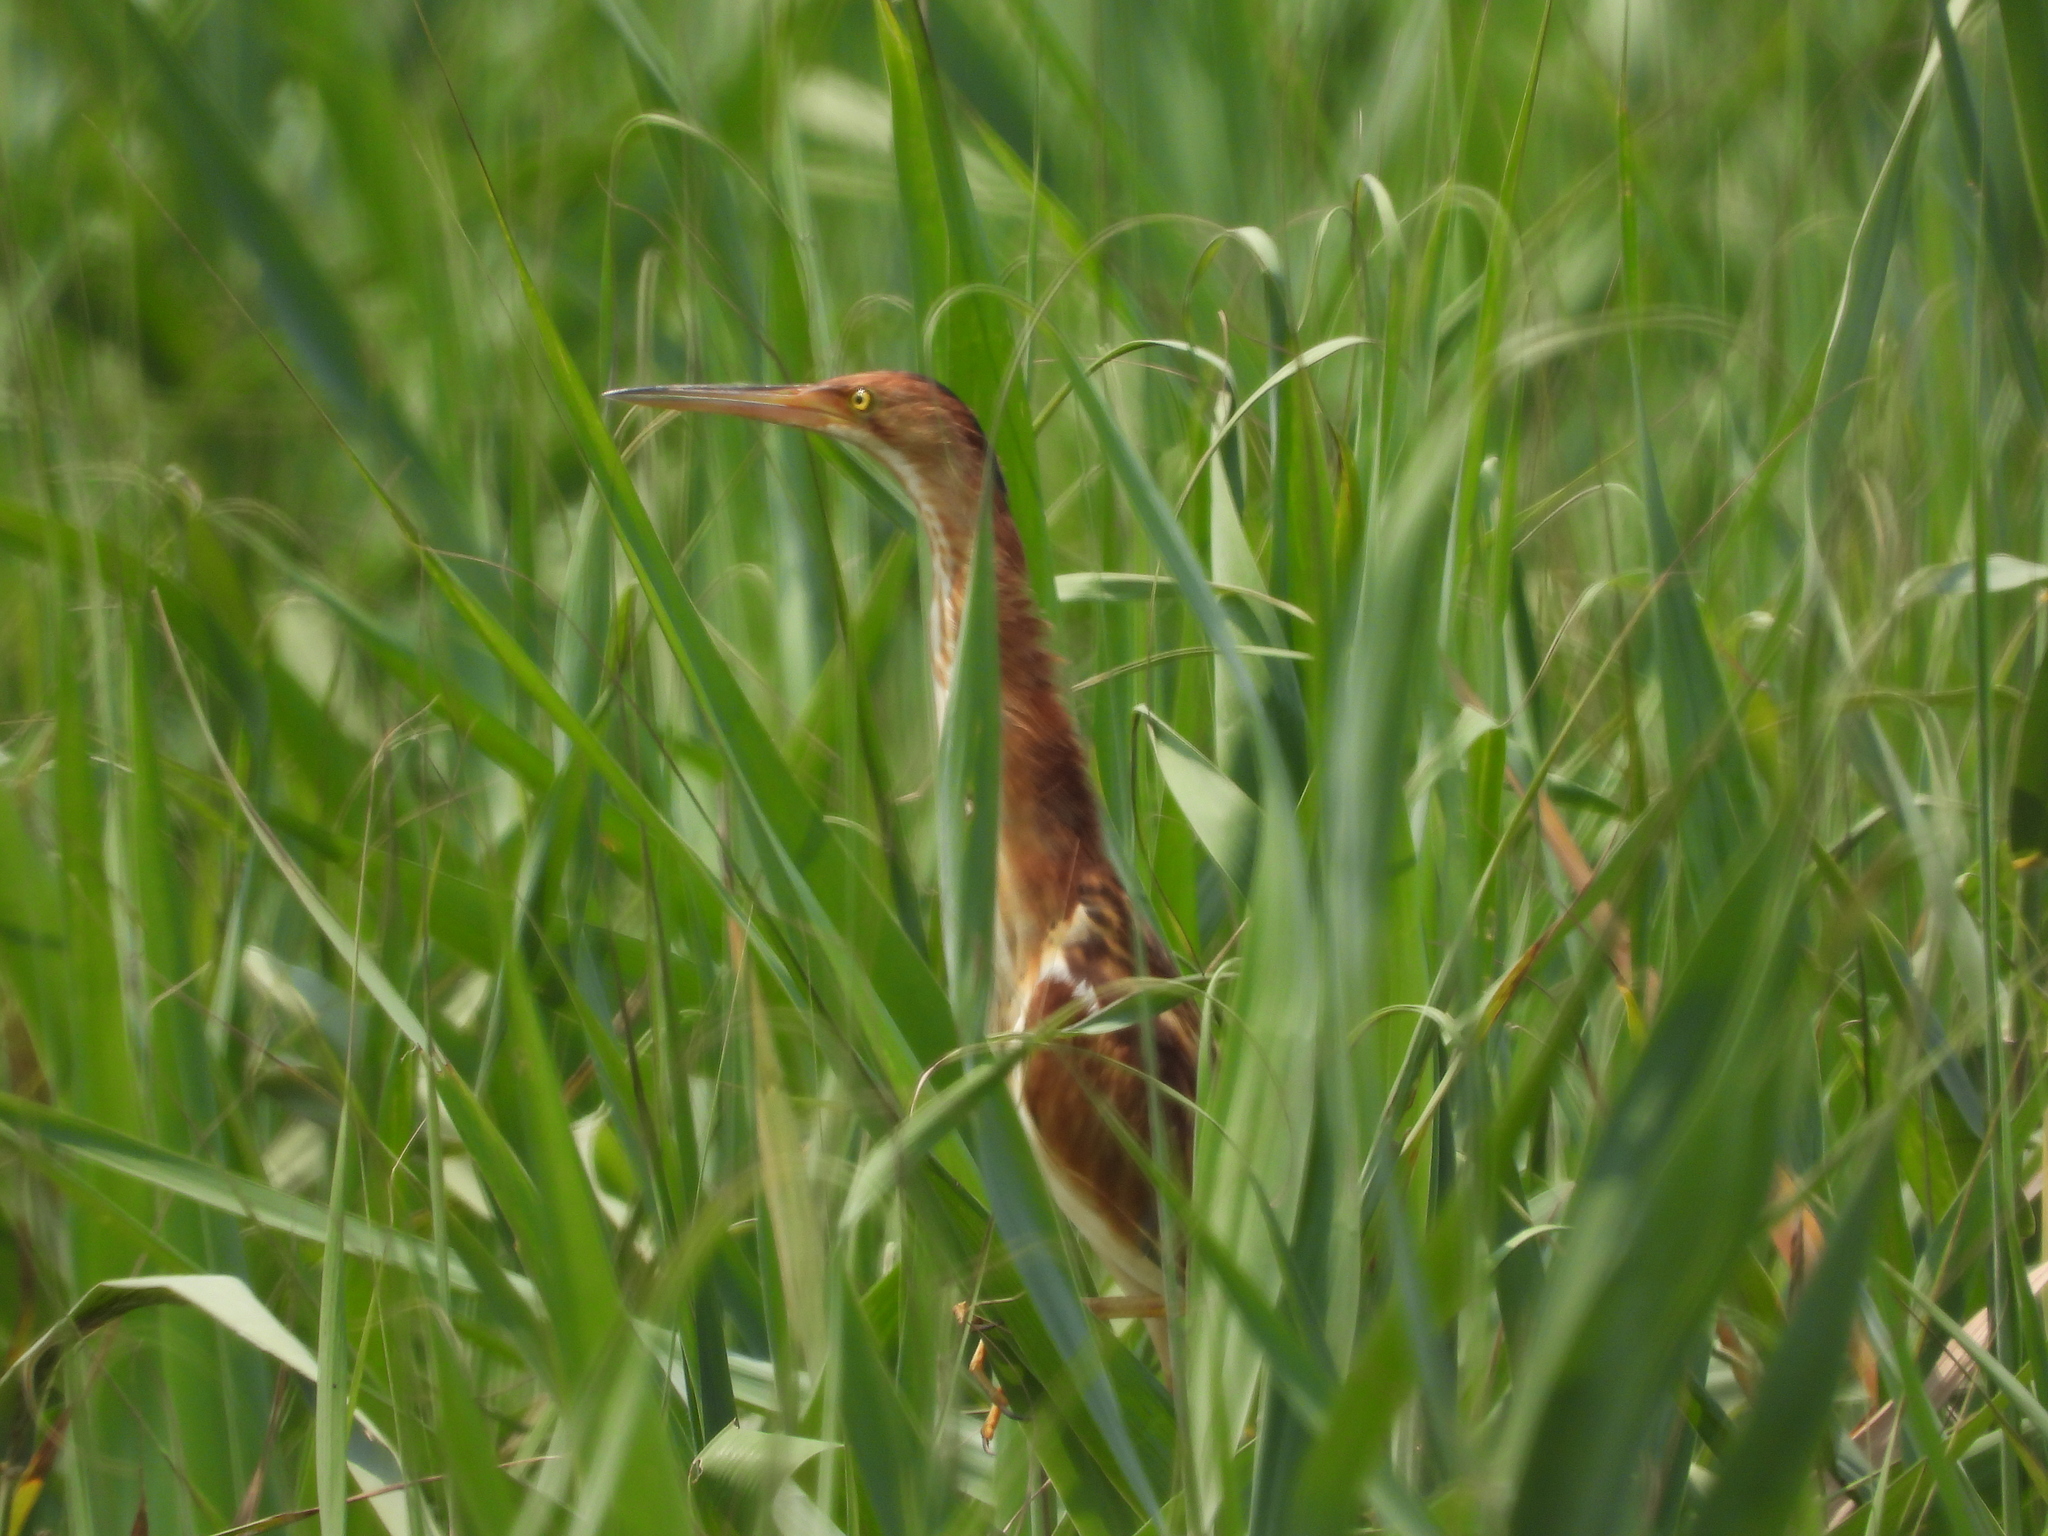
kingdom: Animalia
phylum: Chordata
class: Aves
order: Pelecaniformes
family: Ardeidae
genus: Ixobrychus
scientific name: Ixobrychus sinensis
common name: Yellow bittern
